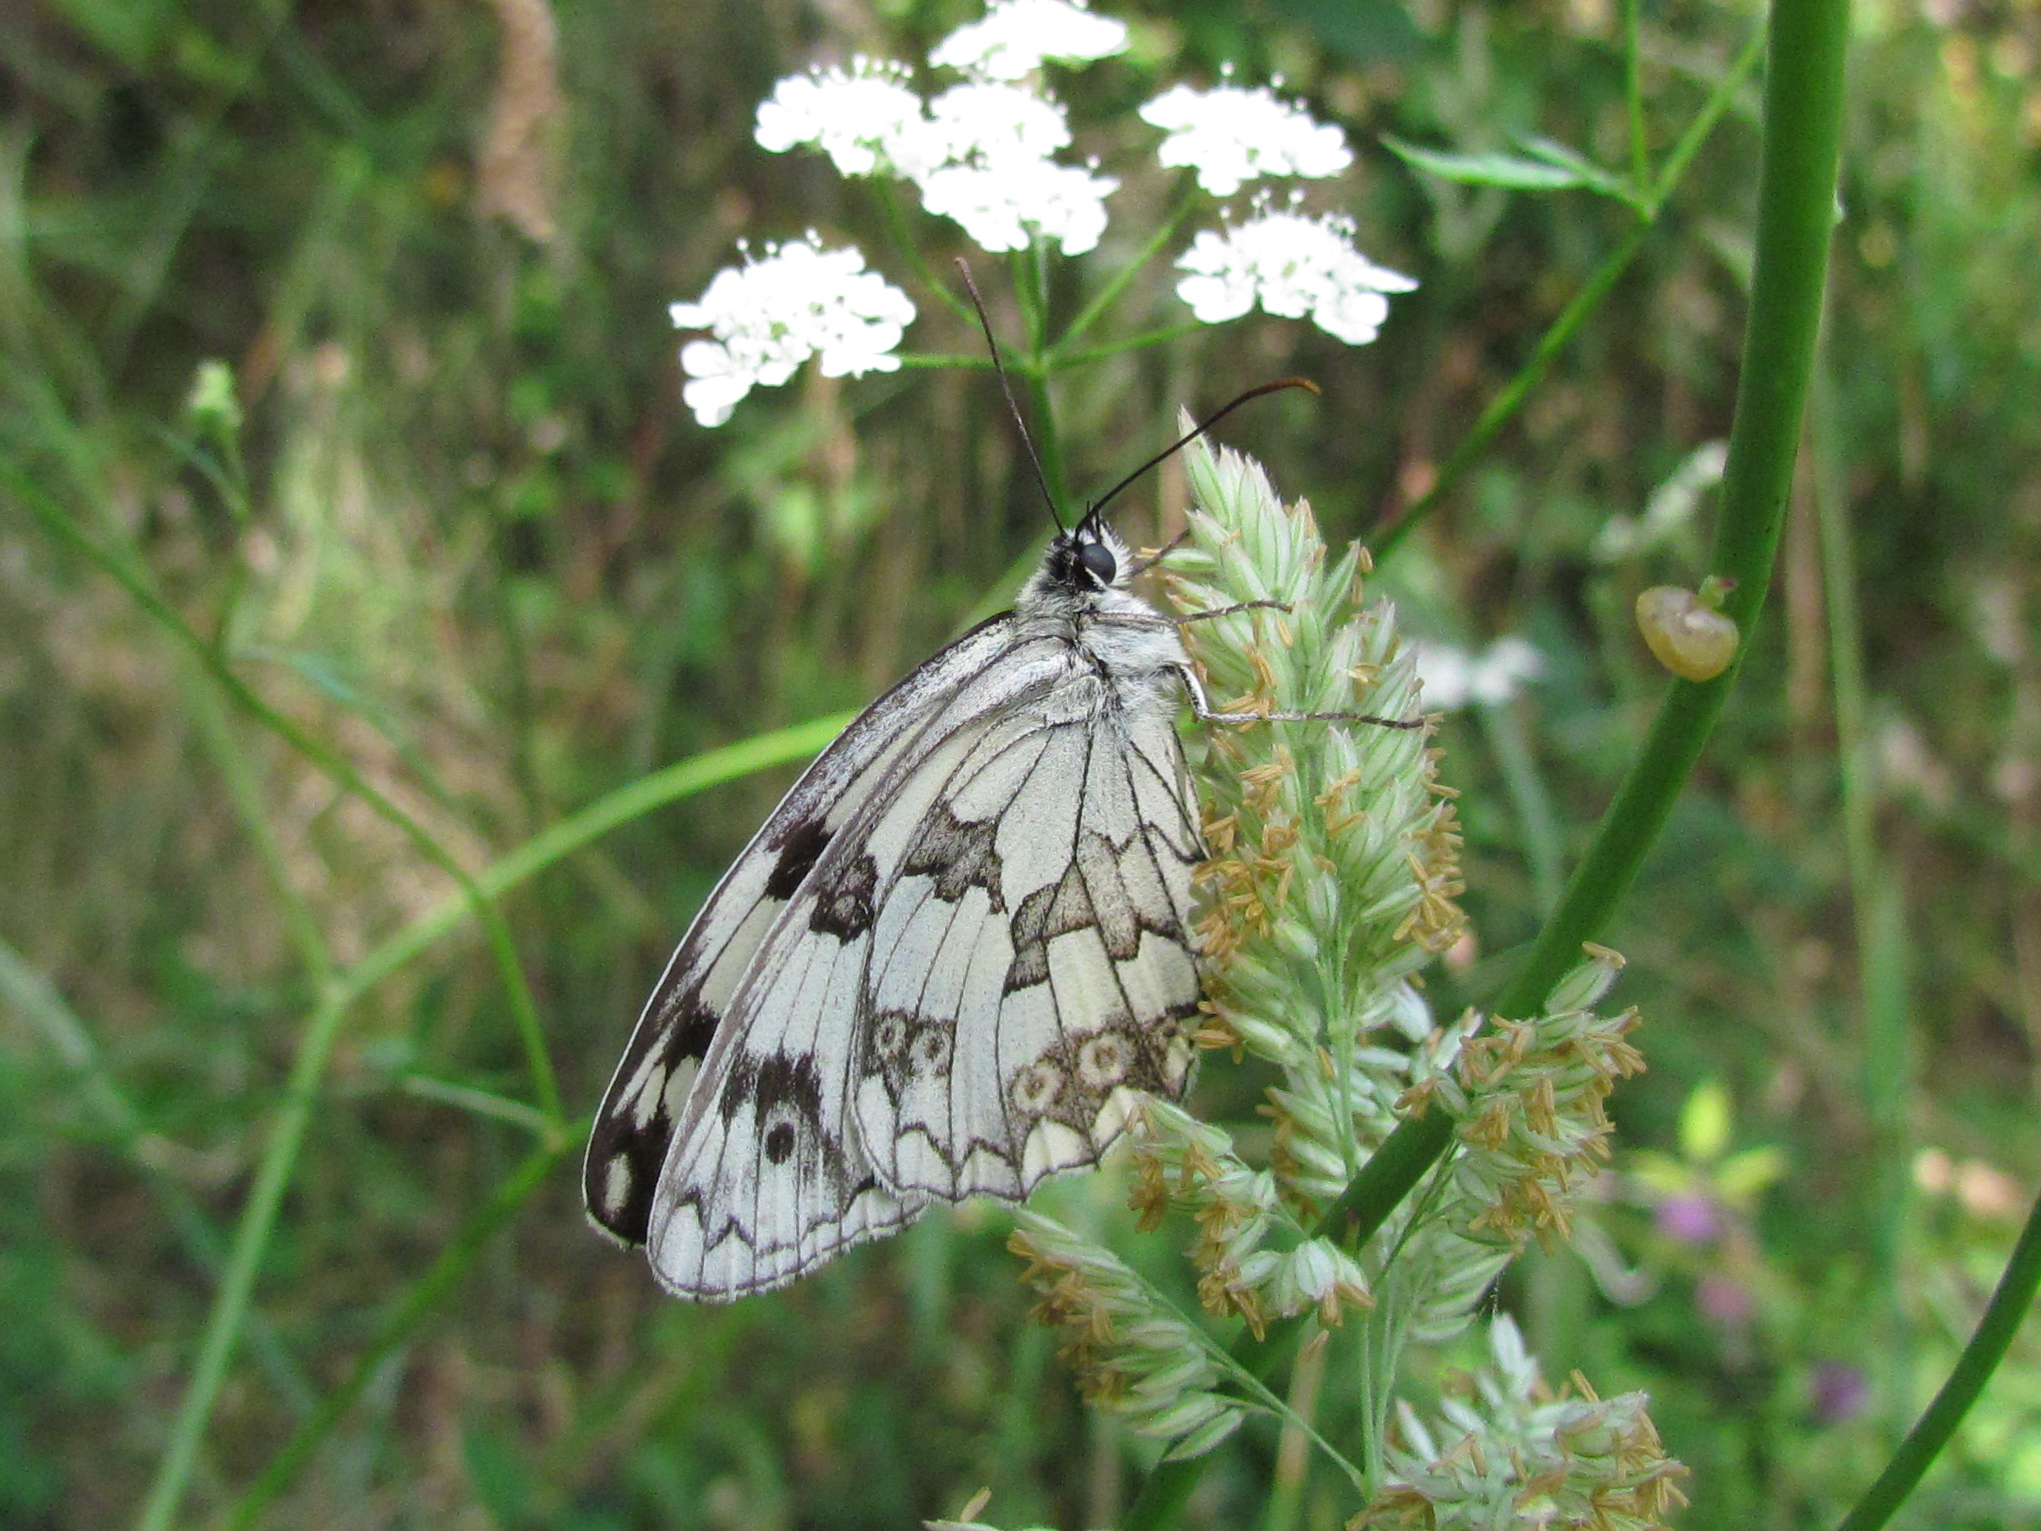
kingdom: Animalia
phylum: Arthropoda
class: Insecta
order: Lepidoptera
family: Nymphalidae
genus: Melanargia
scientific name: Melanargia lachesis
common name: Iberian marbled white
